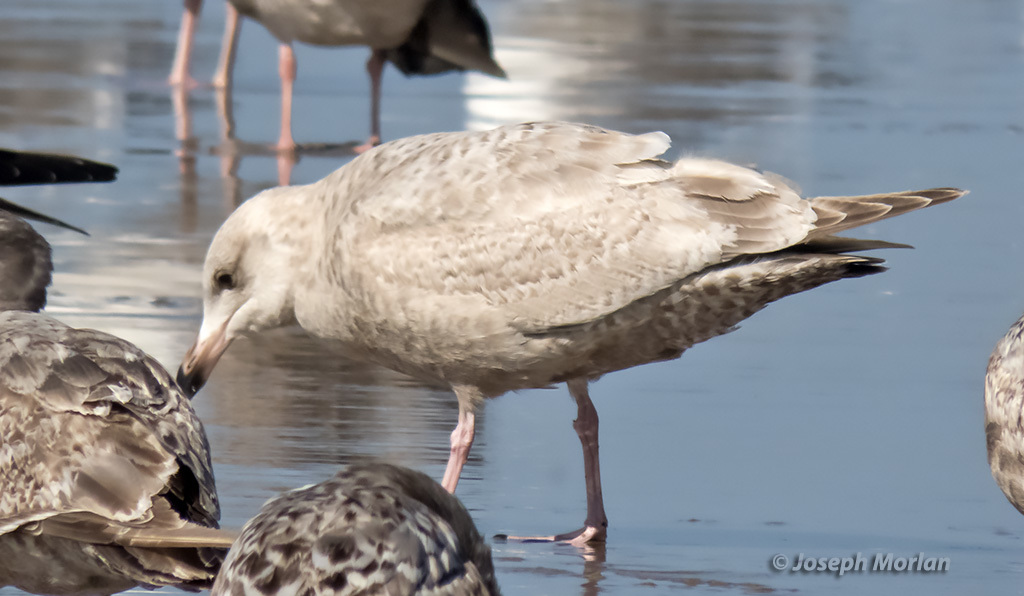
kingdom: Animalia
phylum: Chordata
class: Aves
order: Charadriiformes
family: Laridae
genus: Larus
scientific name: Larus
